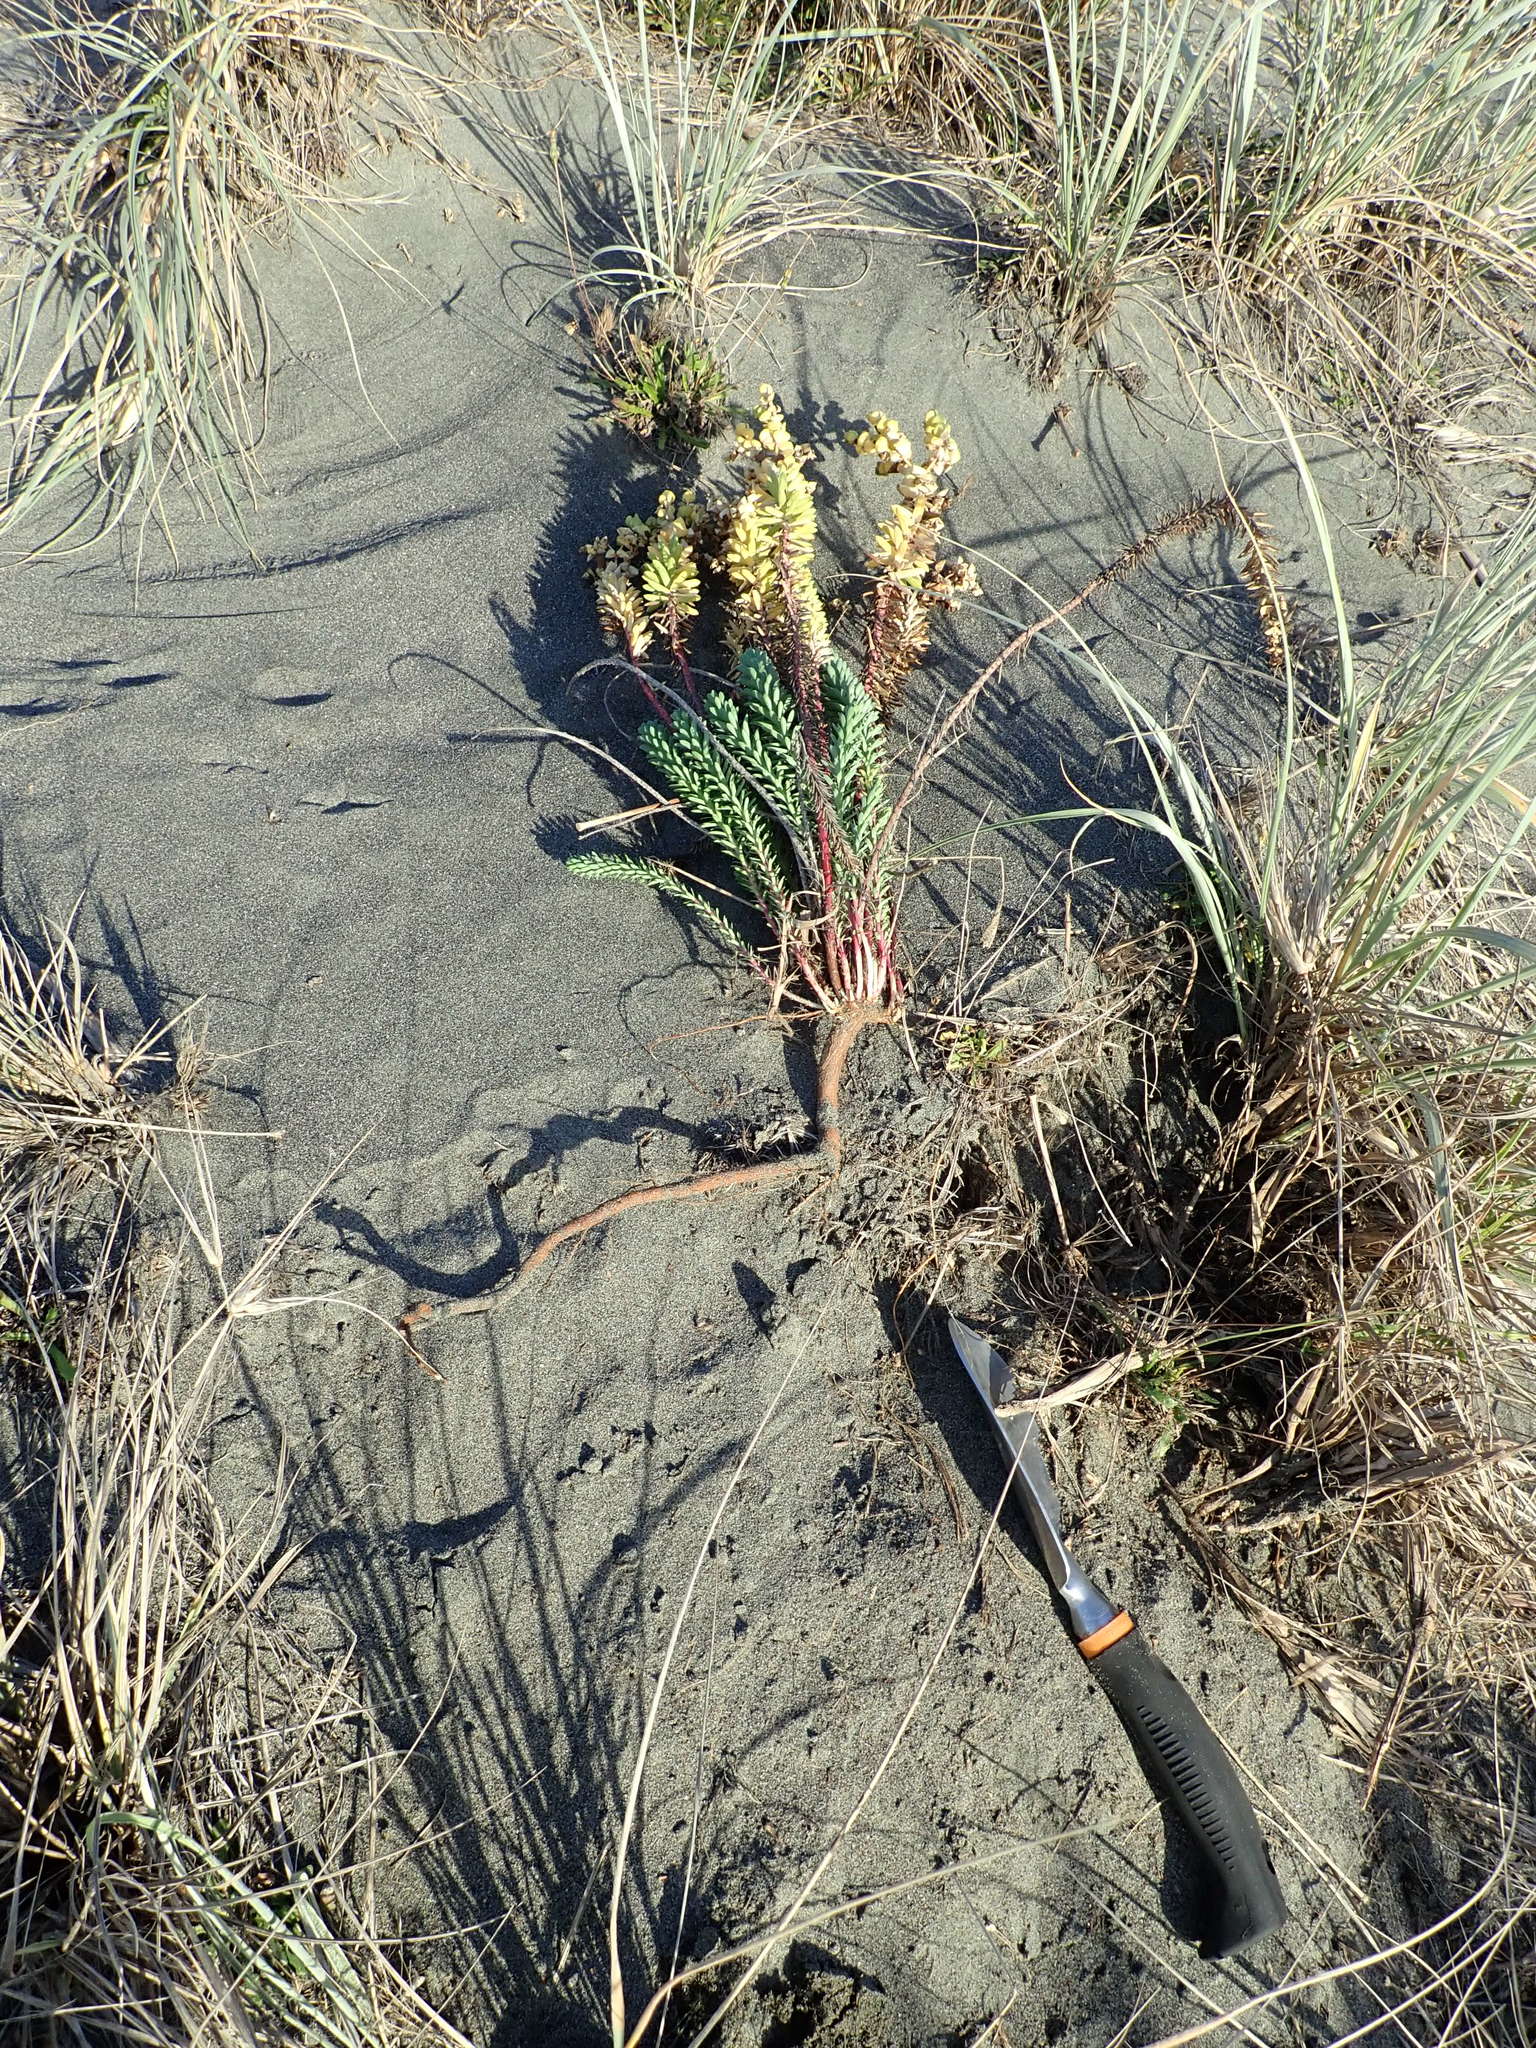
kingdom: Plantae
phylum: Tracheophyta
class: Magnoliopsida
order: Malpighiales
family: Euphorbiaceae
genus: Euphorbia
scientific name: Euphorbia paralias
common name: Sea spurge
